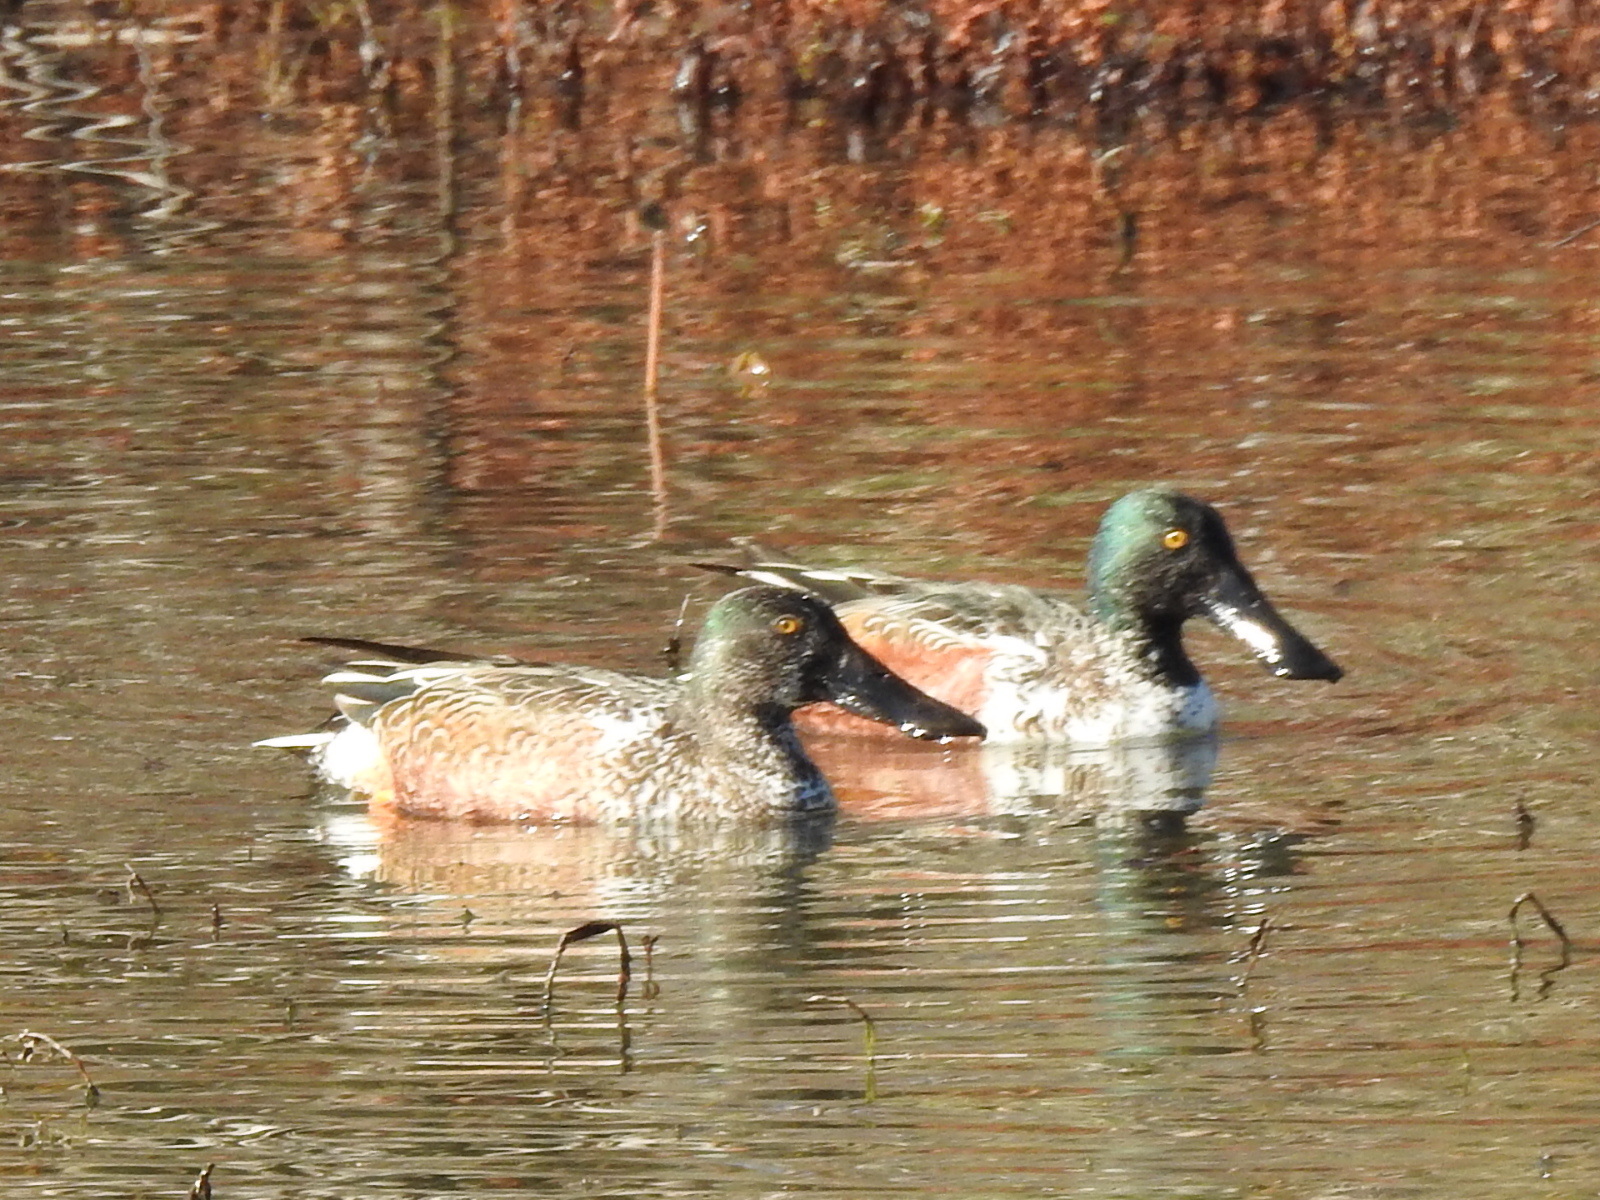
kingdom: Animalia
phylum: Chordata
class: Aves
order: Anseriformes
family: Anatidae
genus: Spatula
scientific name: Spatula clypeata
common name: Northern shoveler
